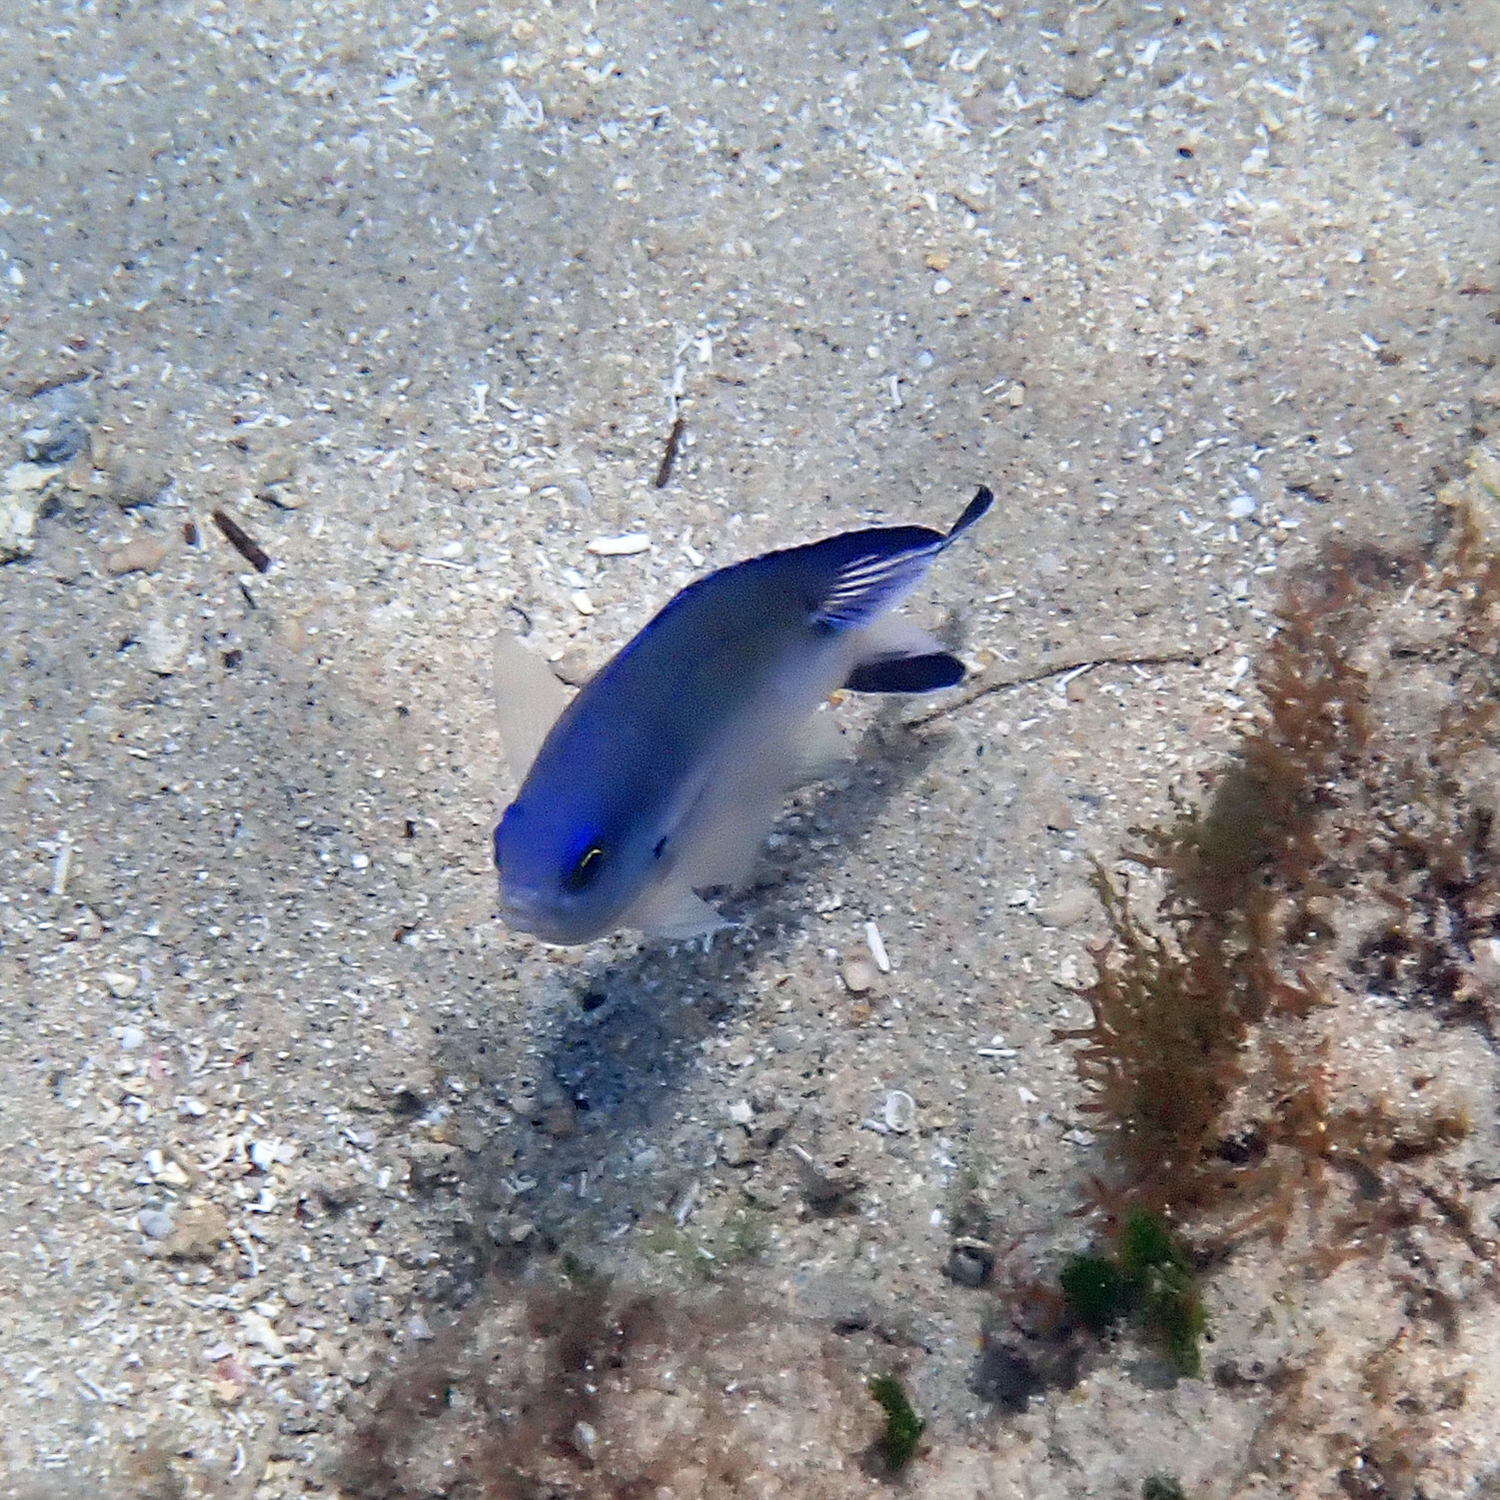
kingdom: Animalia
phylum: Chordata
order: Perciformes
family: Pomacentridae
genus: Chromis
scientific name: Chromis norfolkensis
